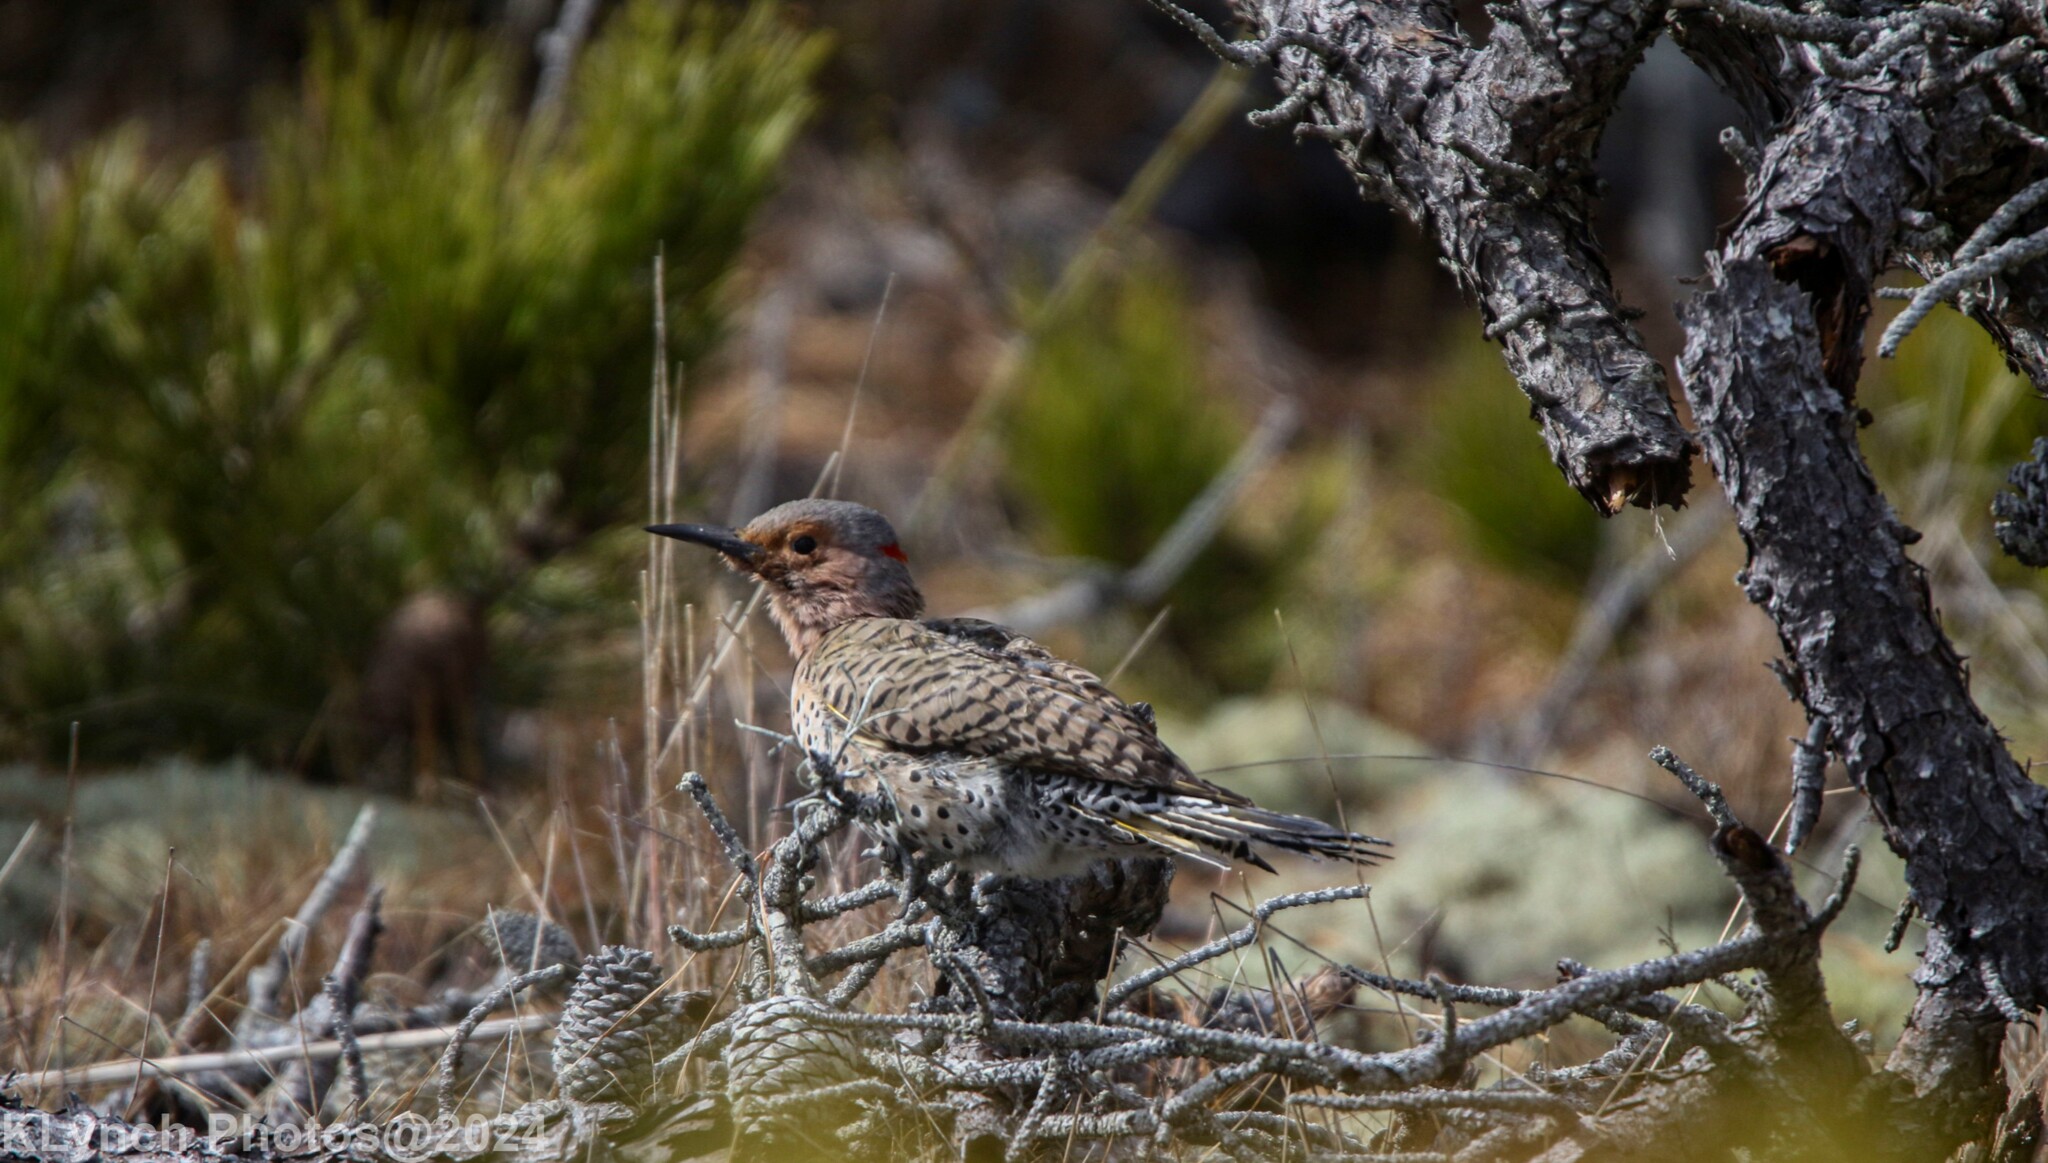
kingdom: Animalia
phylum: Chordata
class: Aves
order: Piciformes
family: Picidae
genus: Colaptes
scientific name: Colaptes auratus
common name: Northern flicker
